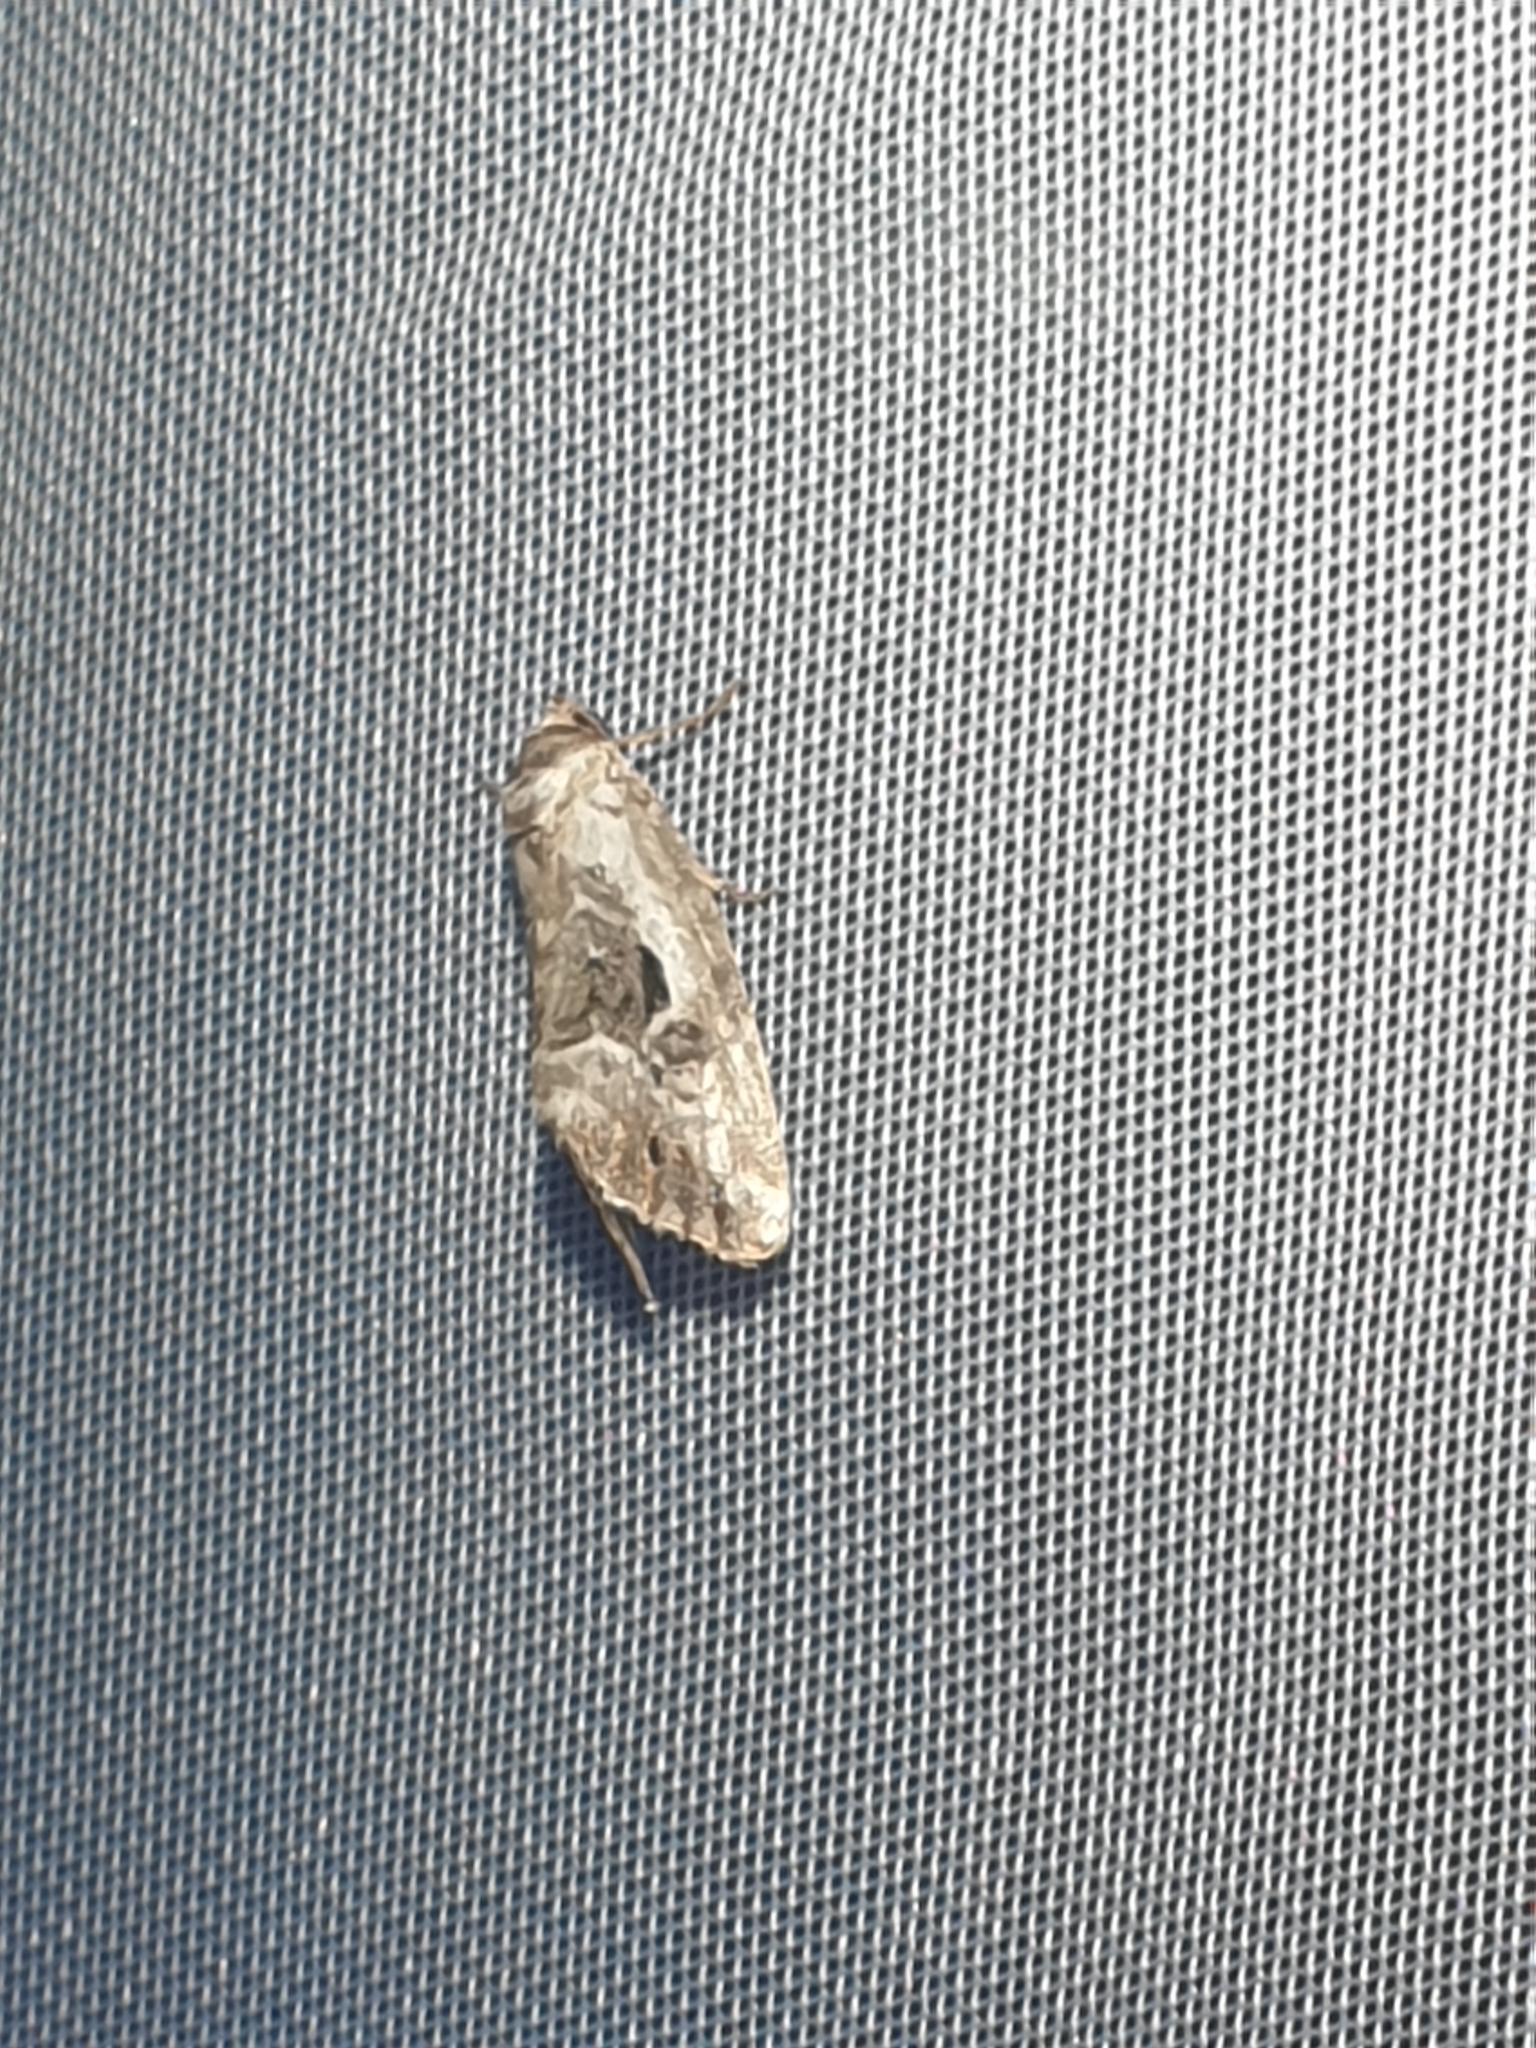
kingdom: Animalia
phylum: Arthropoda
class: Insecta
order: Lepidoptera
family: Noctuidae
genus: Elaphria
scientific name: Elaphria venustula
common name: Rosy marbled
